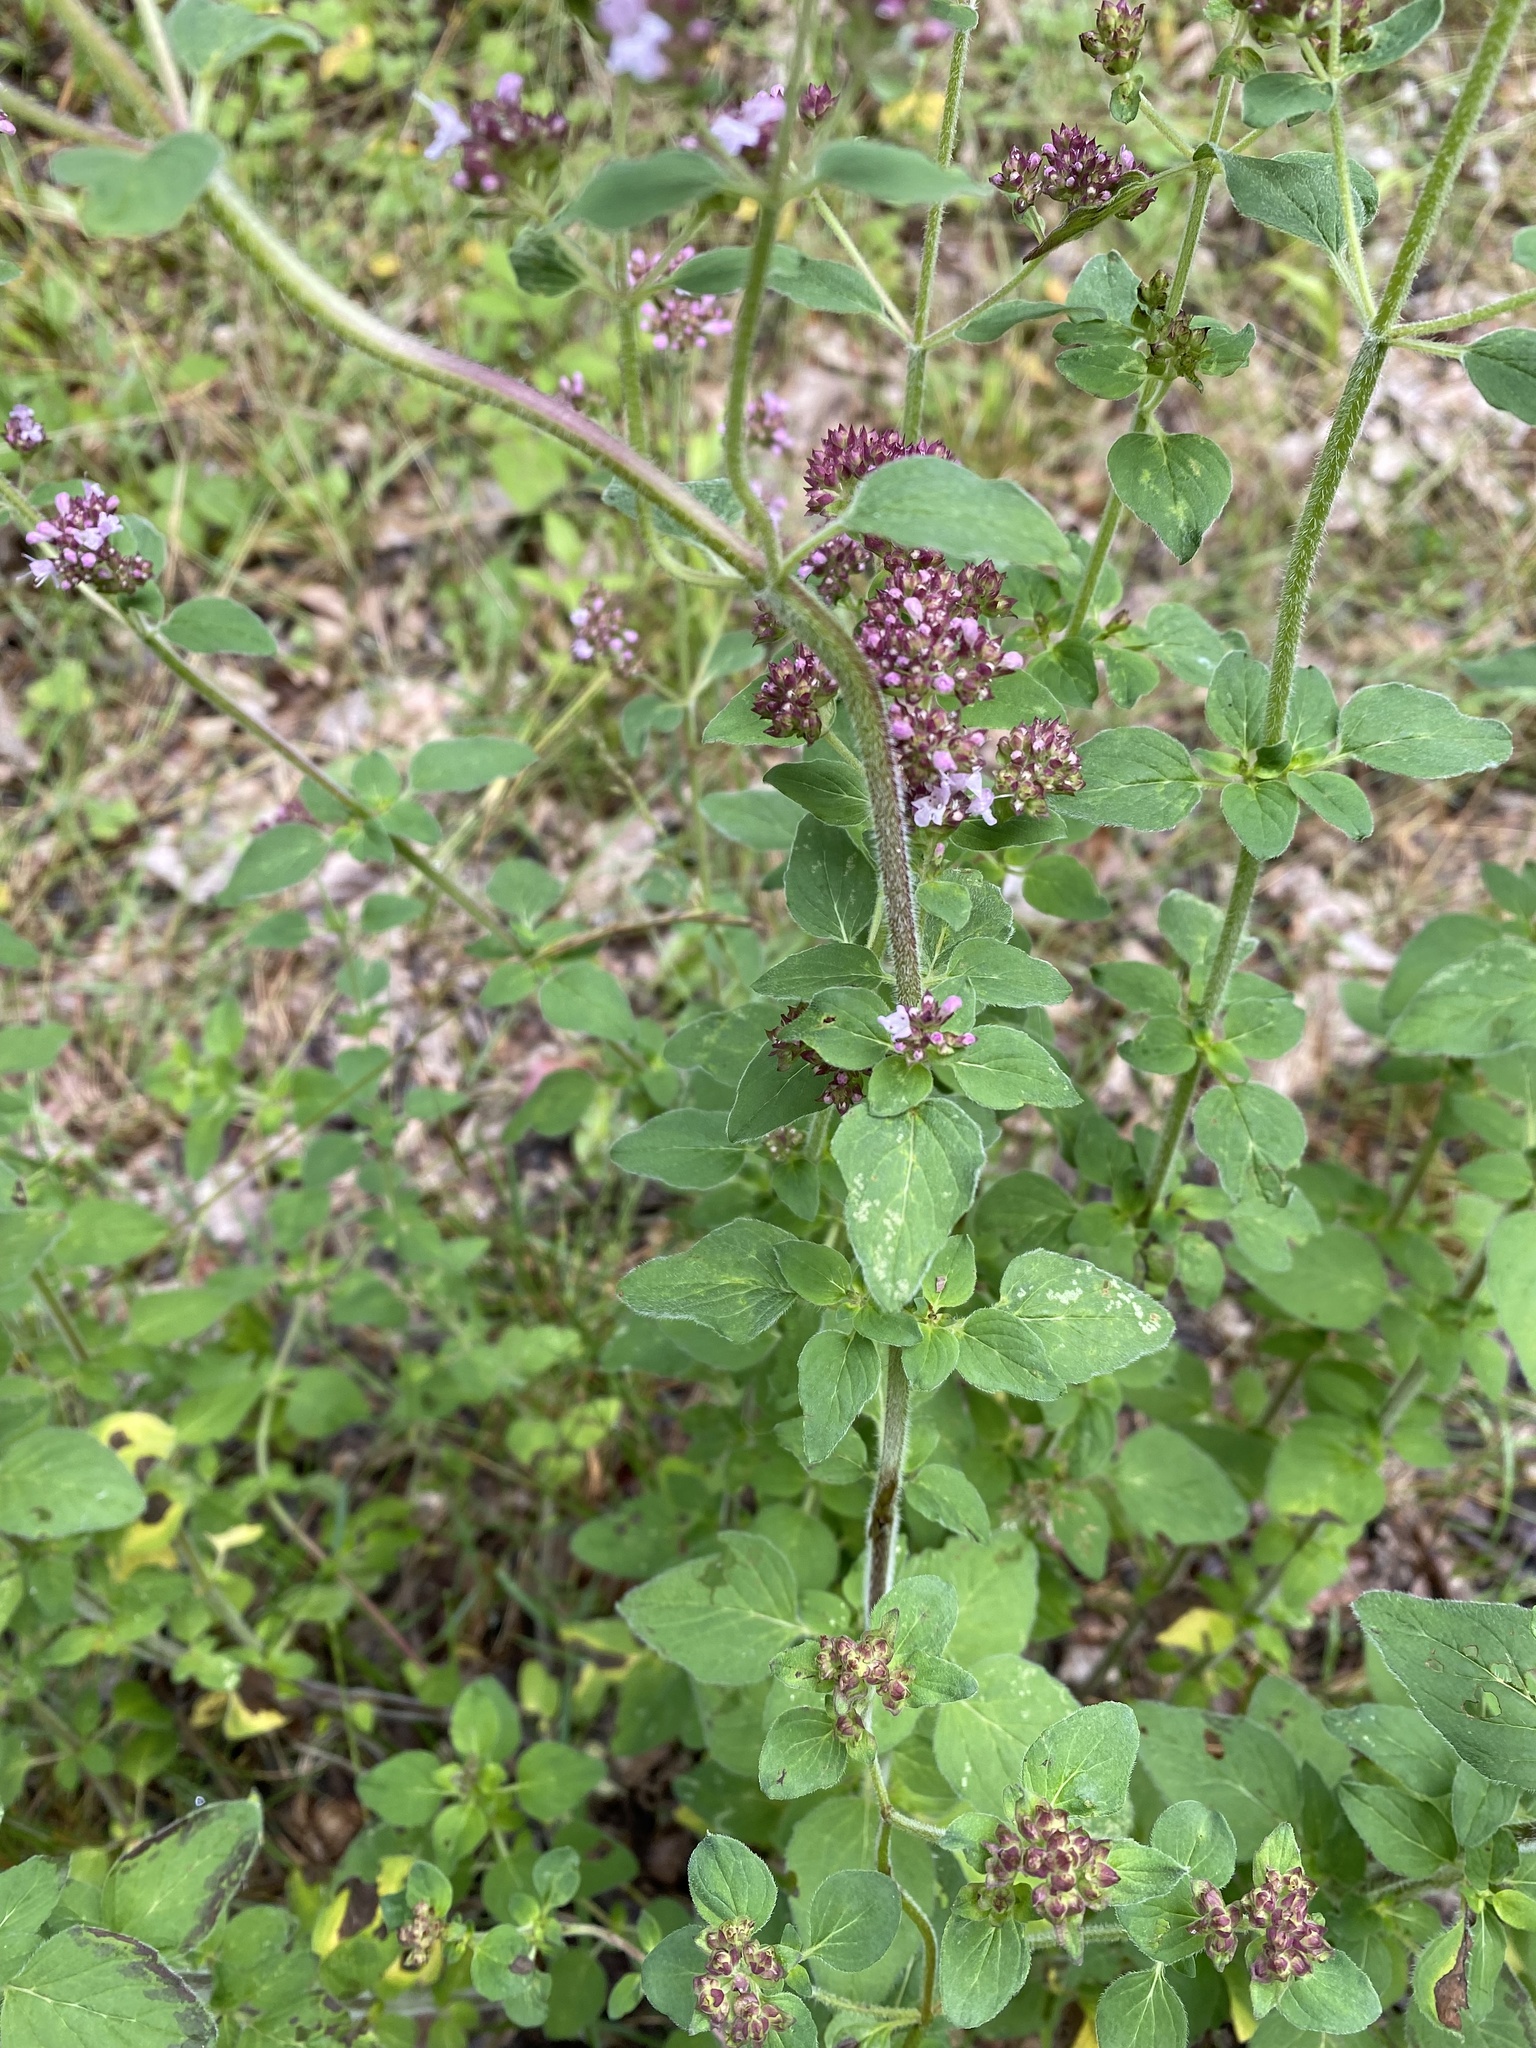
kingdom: Plantae
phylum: Tracheophyta
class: Magnoliopsida
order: Lamiales
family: Lamiaceae
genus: Origanum
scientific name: Origanum vulgare
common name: Wild marjoram
